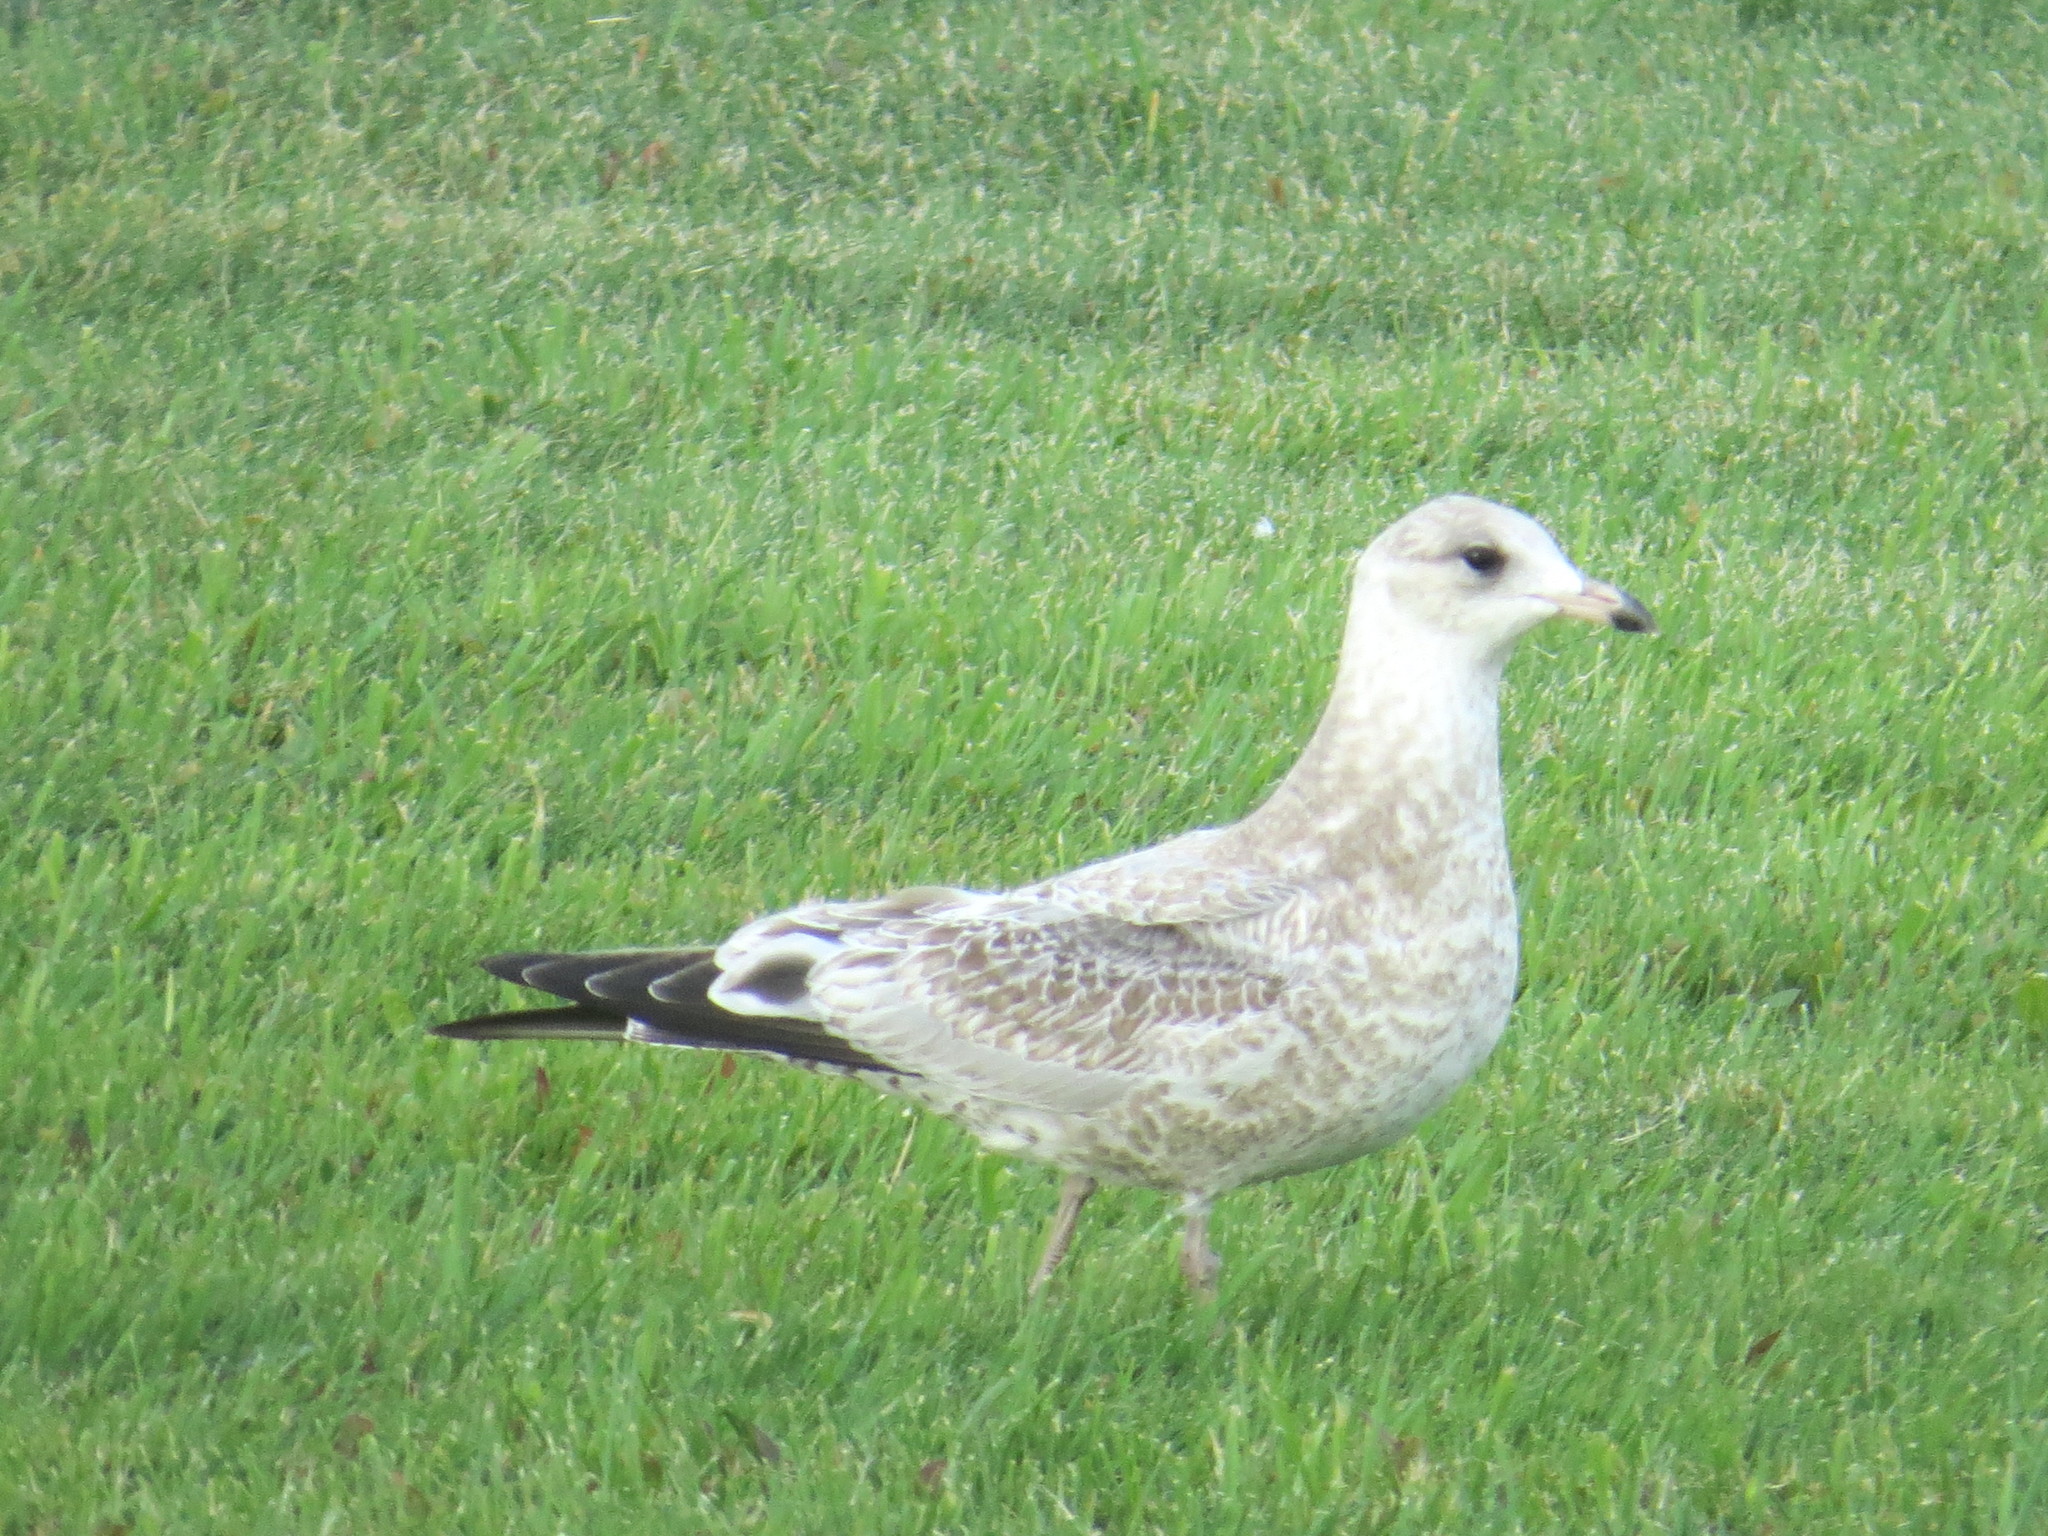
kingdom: Animalia
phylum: Chordata
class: Aves
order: Charadriiformes
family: Laridae
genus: Larus
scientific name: Larus delawarensis
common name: Ring-billed gull
